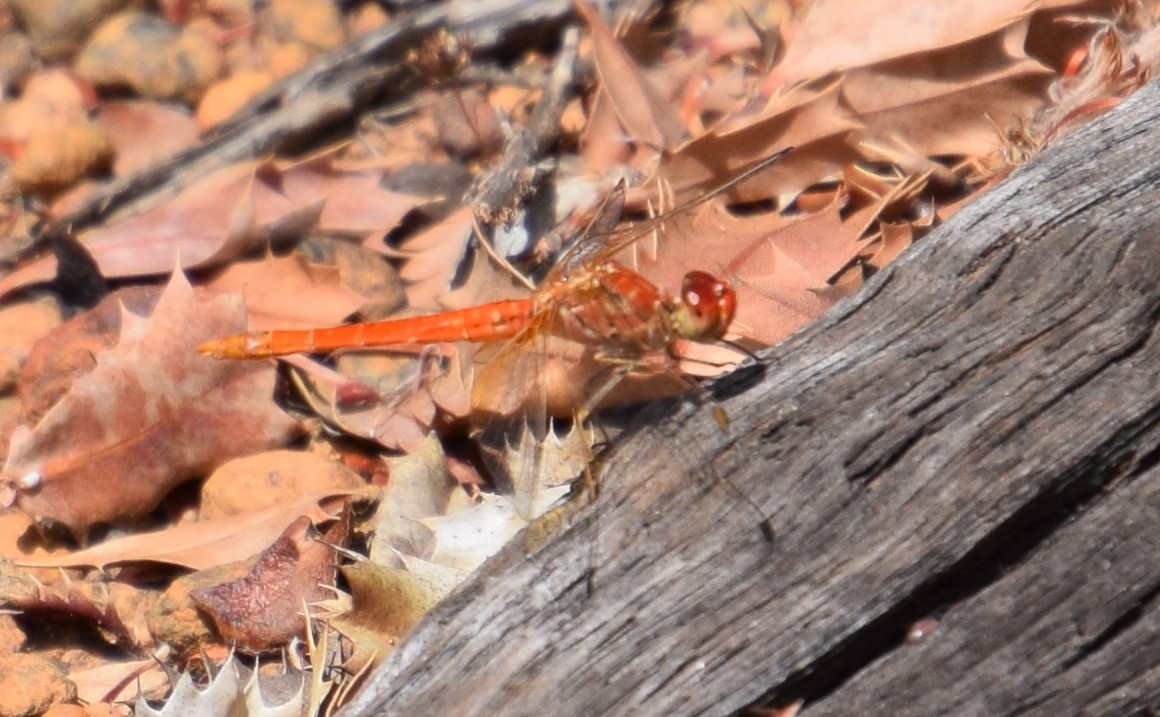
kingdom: Animalia
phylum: Arthropoda
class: Insecta
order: Odonata
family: Libellulidae
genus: Diplacodes
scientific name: Diplacodes haematodes
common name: Scarlet percher
